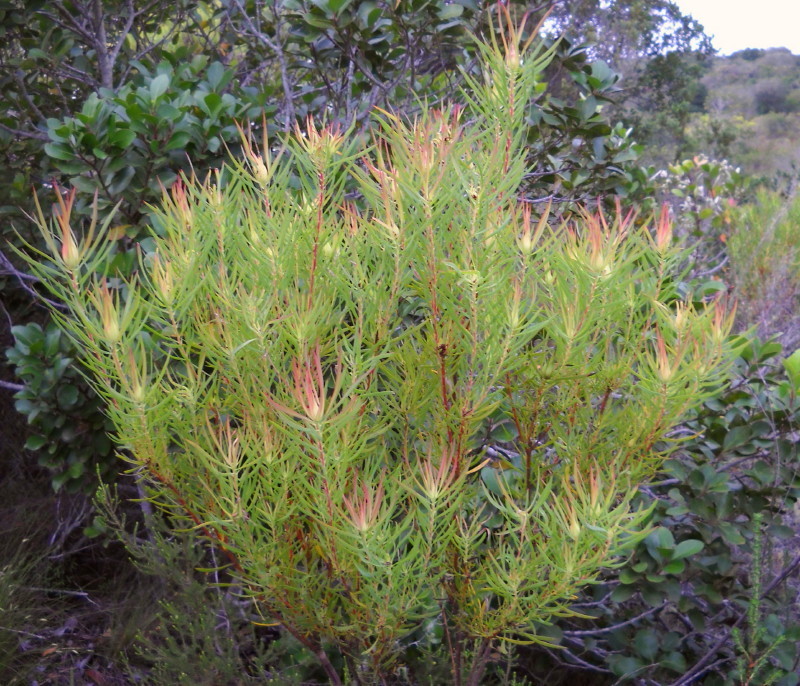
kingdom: Plantae
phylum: Tracheophyta
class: Magnoliopsida
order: Proteales
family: Proteaceae
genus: Leucadendron
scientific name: Leucadendron salignum
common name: Common sunshine conebush
